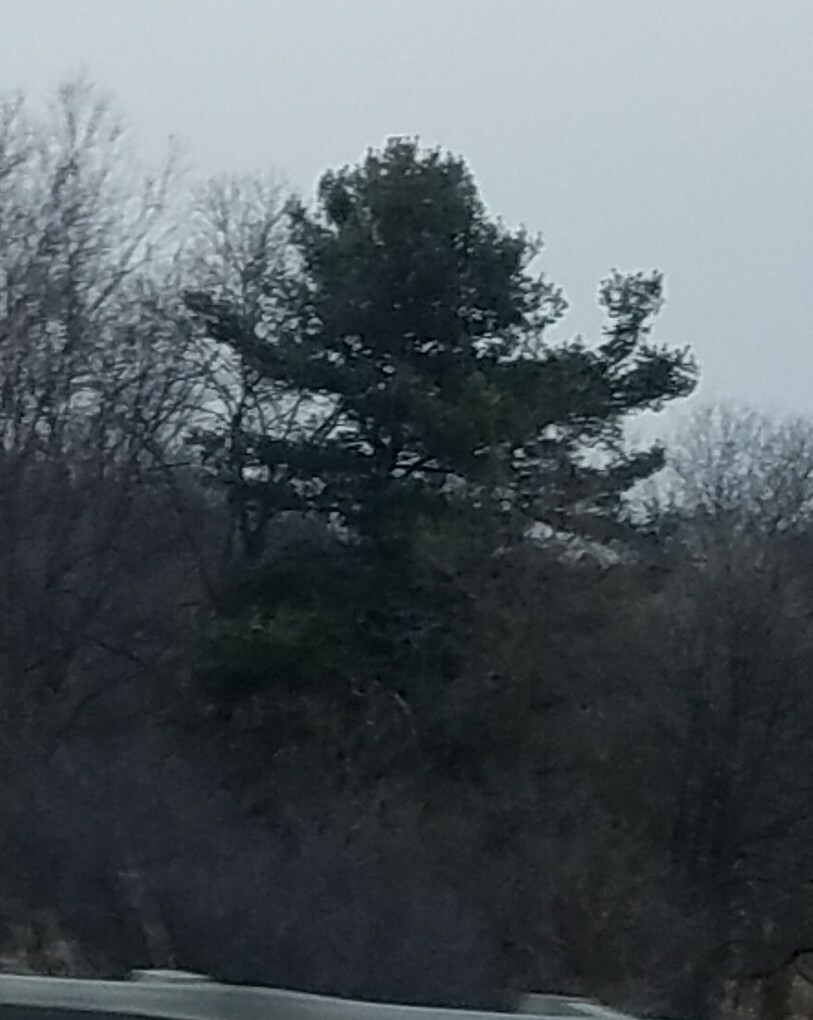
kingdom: Plantae
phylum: Tracheophyta
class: Pinopsida
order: Pinales
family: Pinaceae
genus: Pinus
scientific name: Pinus strobus
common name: Weymouth pine
